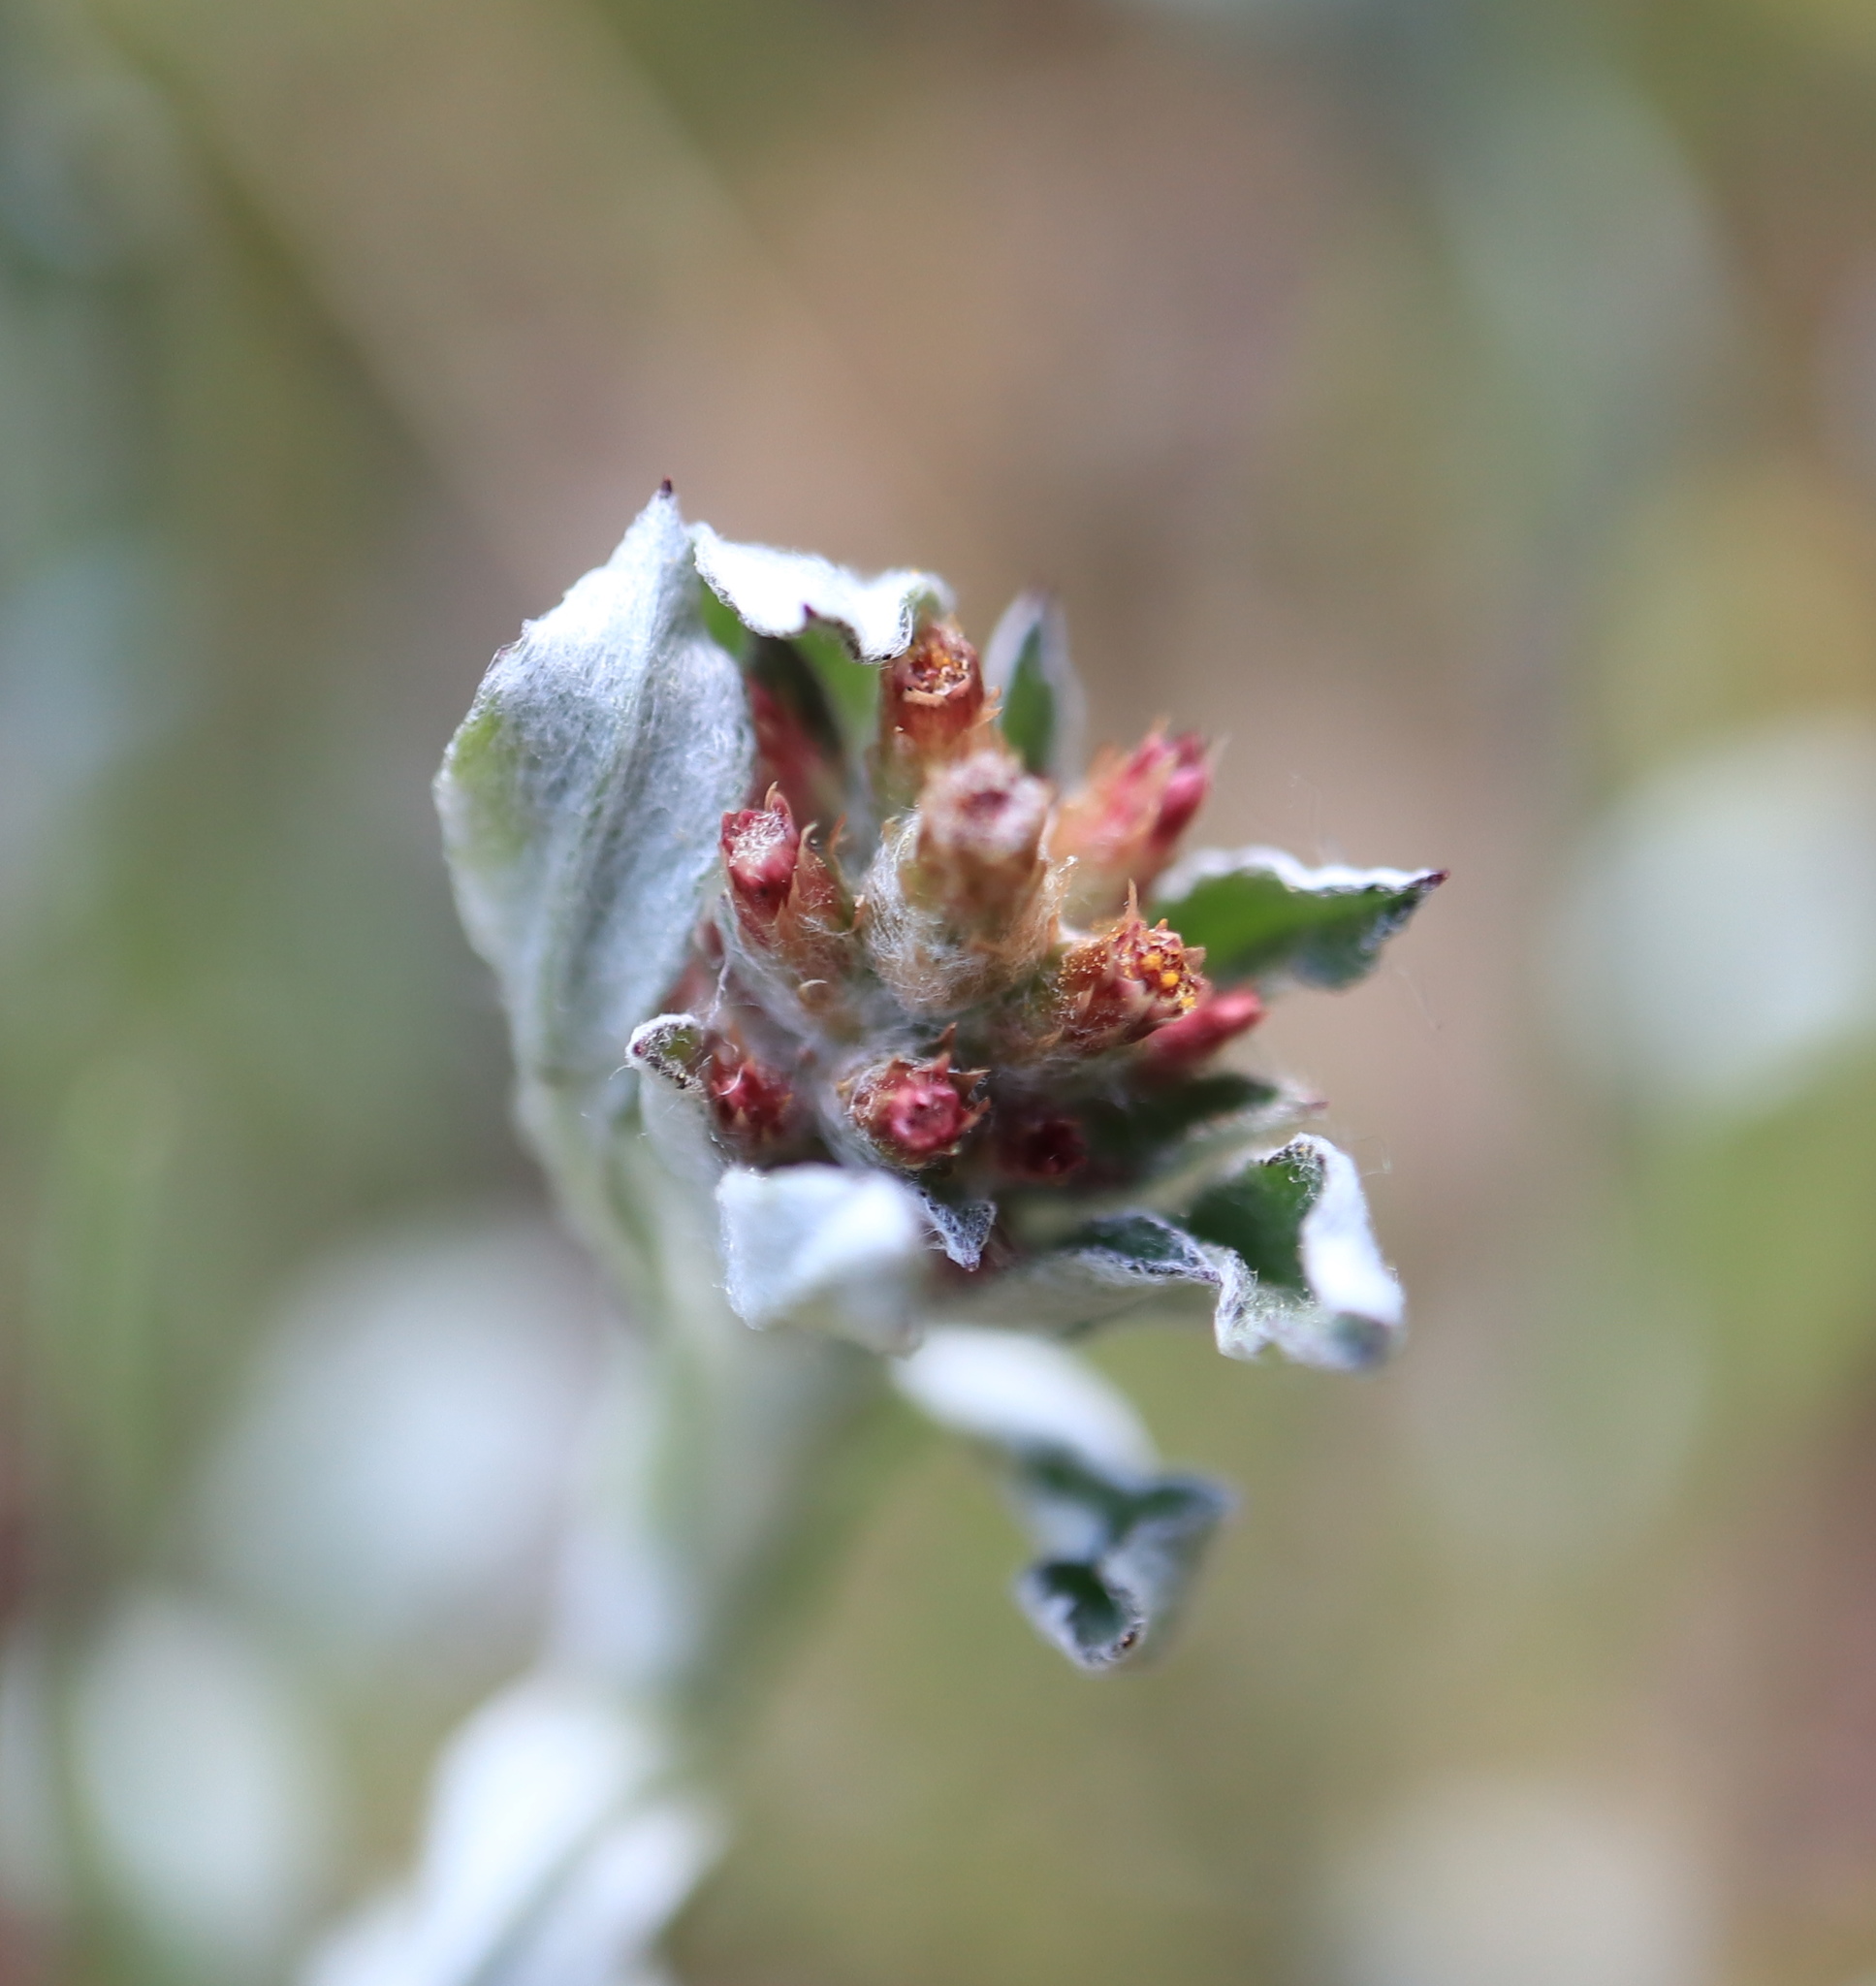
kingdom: Plantae
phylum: Tracheophyta
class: Magnoliopsida
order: Asterales
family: Asteraceae
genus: Gamochaeta
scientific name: Gamochaeta purpurea
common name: Purple cudweed
